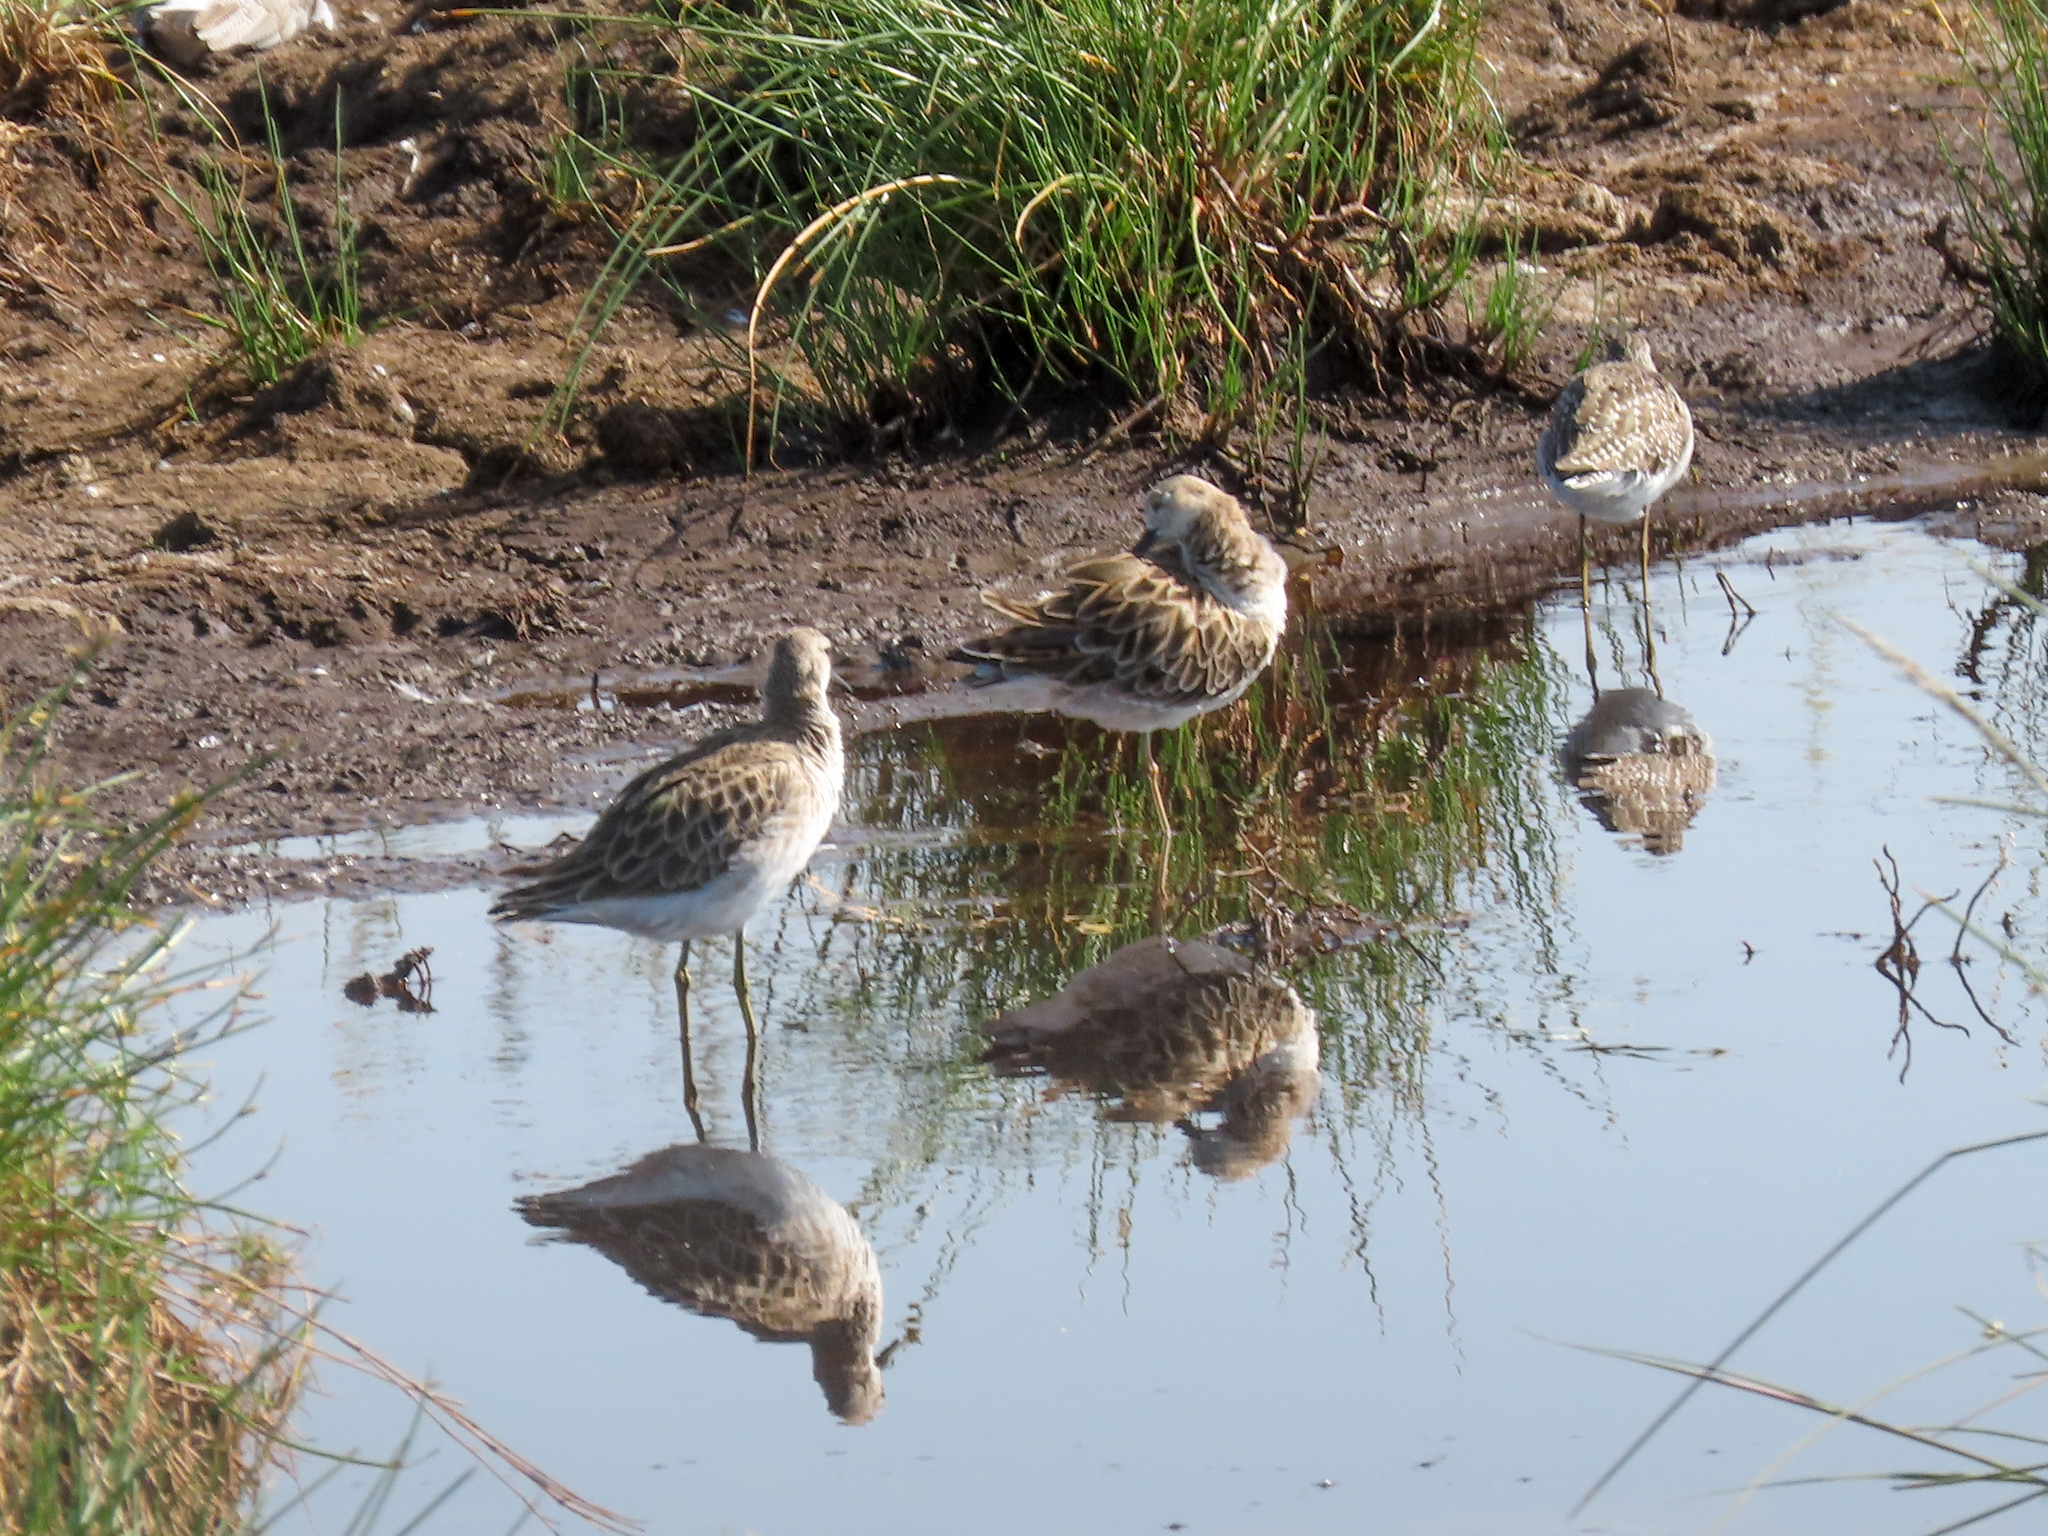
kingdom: Animalia
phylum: Chordata
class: Aves
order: Charadriiformes
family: Scolopacidae
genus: Calidris
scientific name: Calidris pugnax
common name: Ruff
